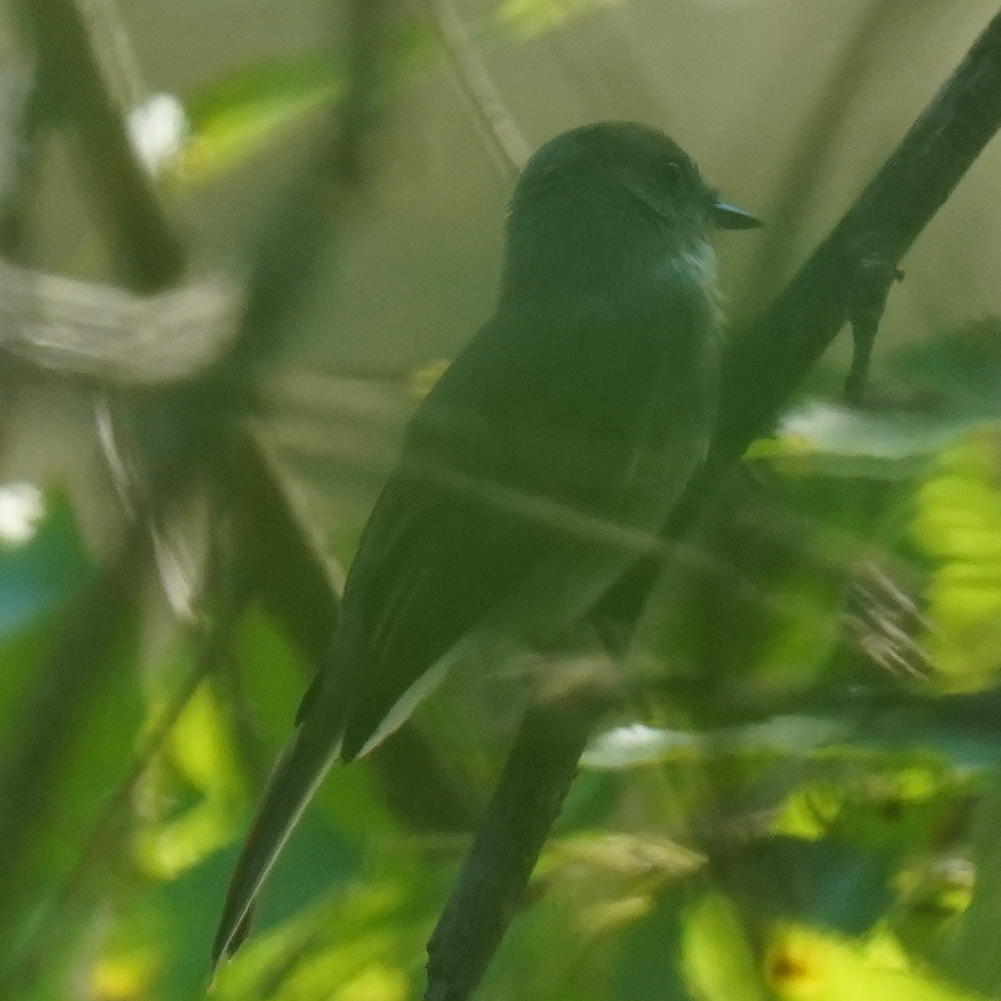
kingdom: Animalia
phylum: Chordata
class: Aves
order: Passeriformes
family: Tyrannidae
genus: Sayornis
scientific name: Sayornis phoebe
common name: Eastern phoebe
